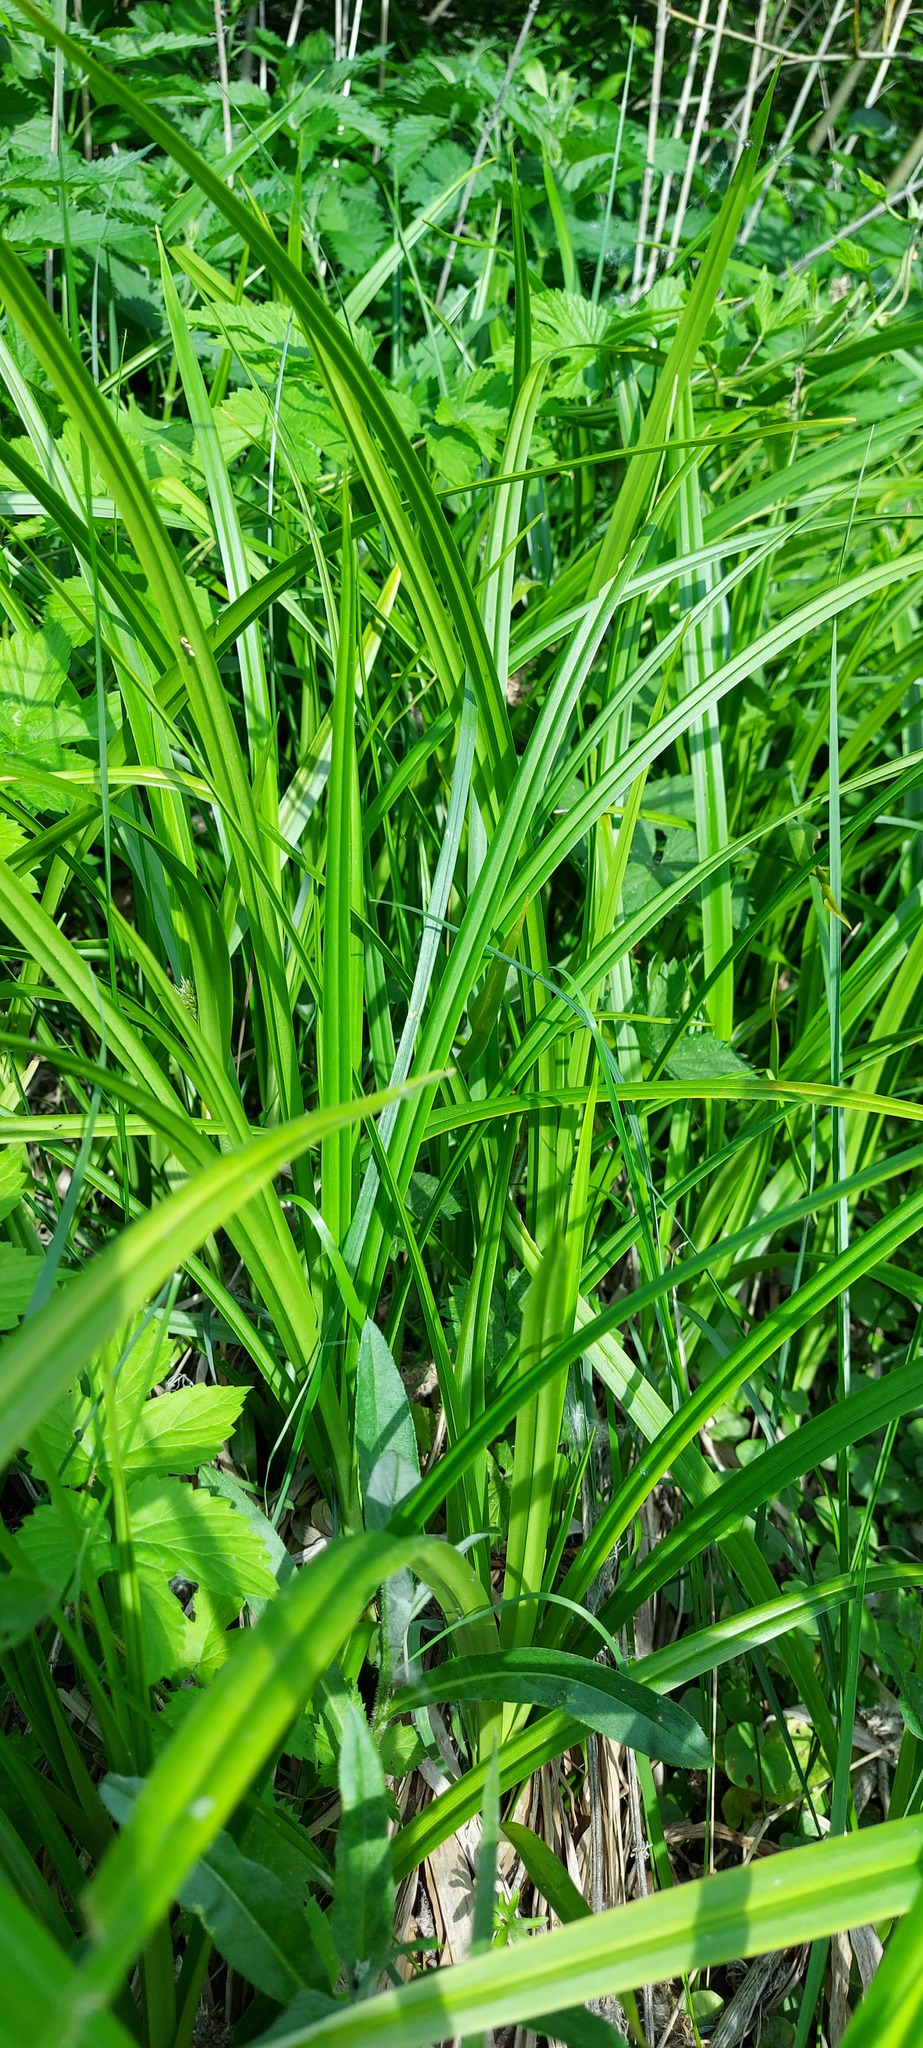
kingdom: Plantae
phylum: Tracheophyta
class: Liliopsida
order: Poales
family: Cyperaceae
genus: Scirpus
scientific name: Scirpus sylvaticus
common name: Wood club-rush
